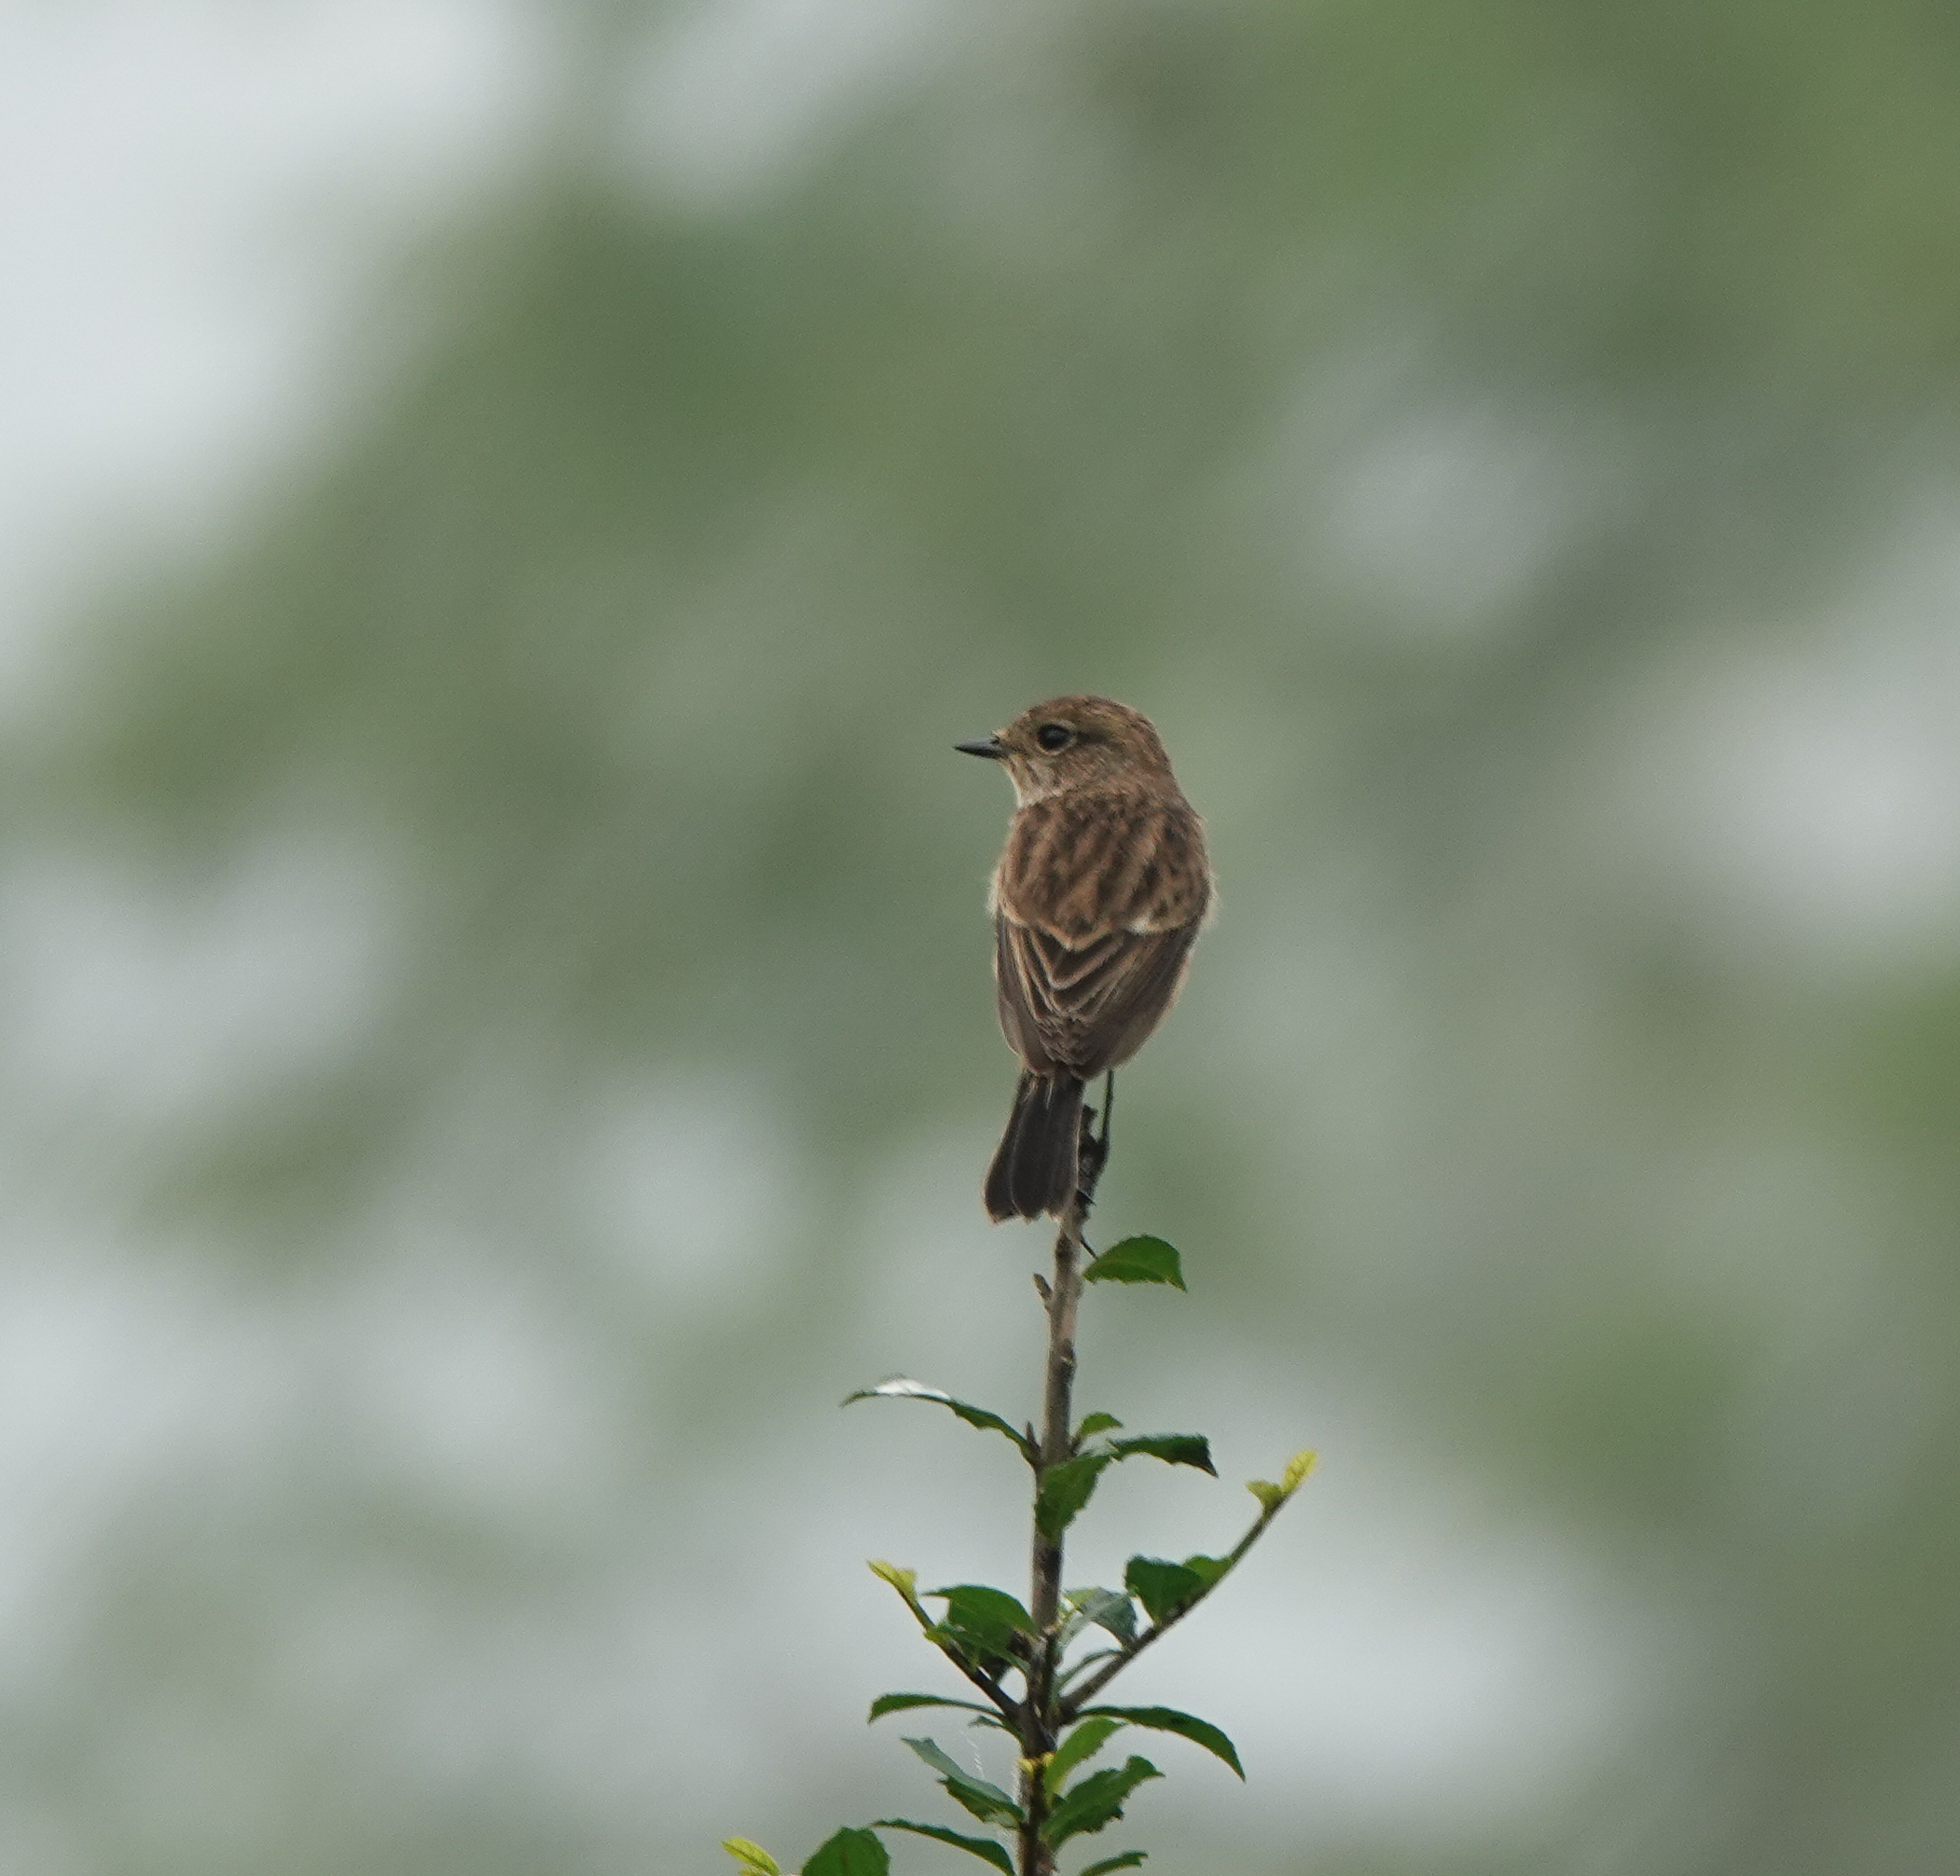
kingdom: Animalia
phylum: Chordata
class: Aves
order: Passeriformes
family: Muscicapidae
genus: Saxicola
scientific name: Saxicola maurus
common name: Siberian stonechat
